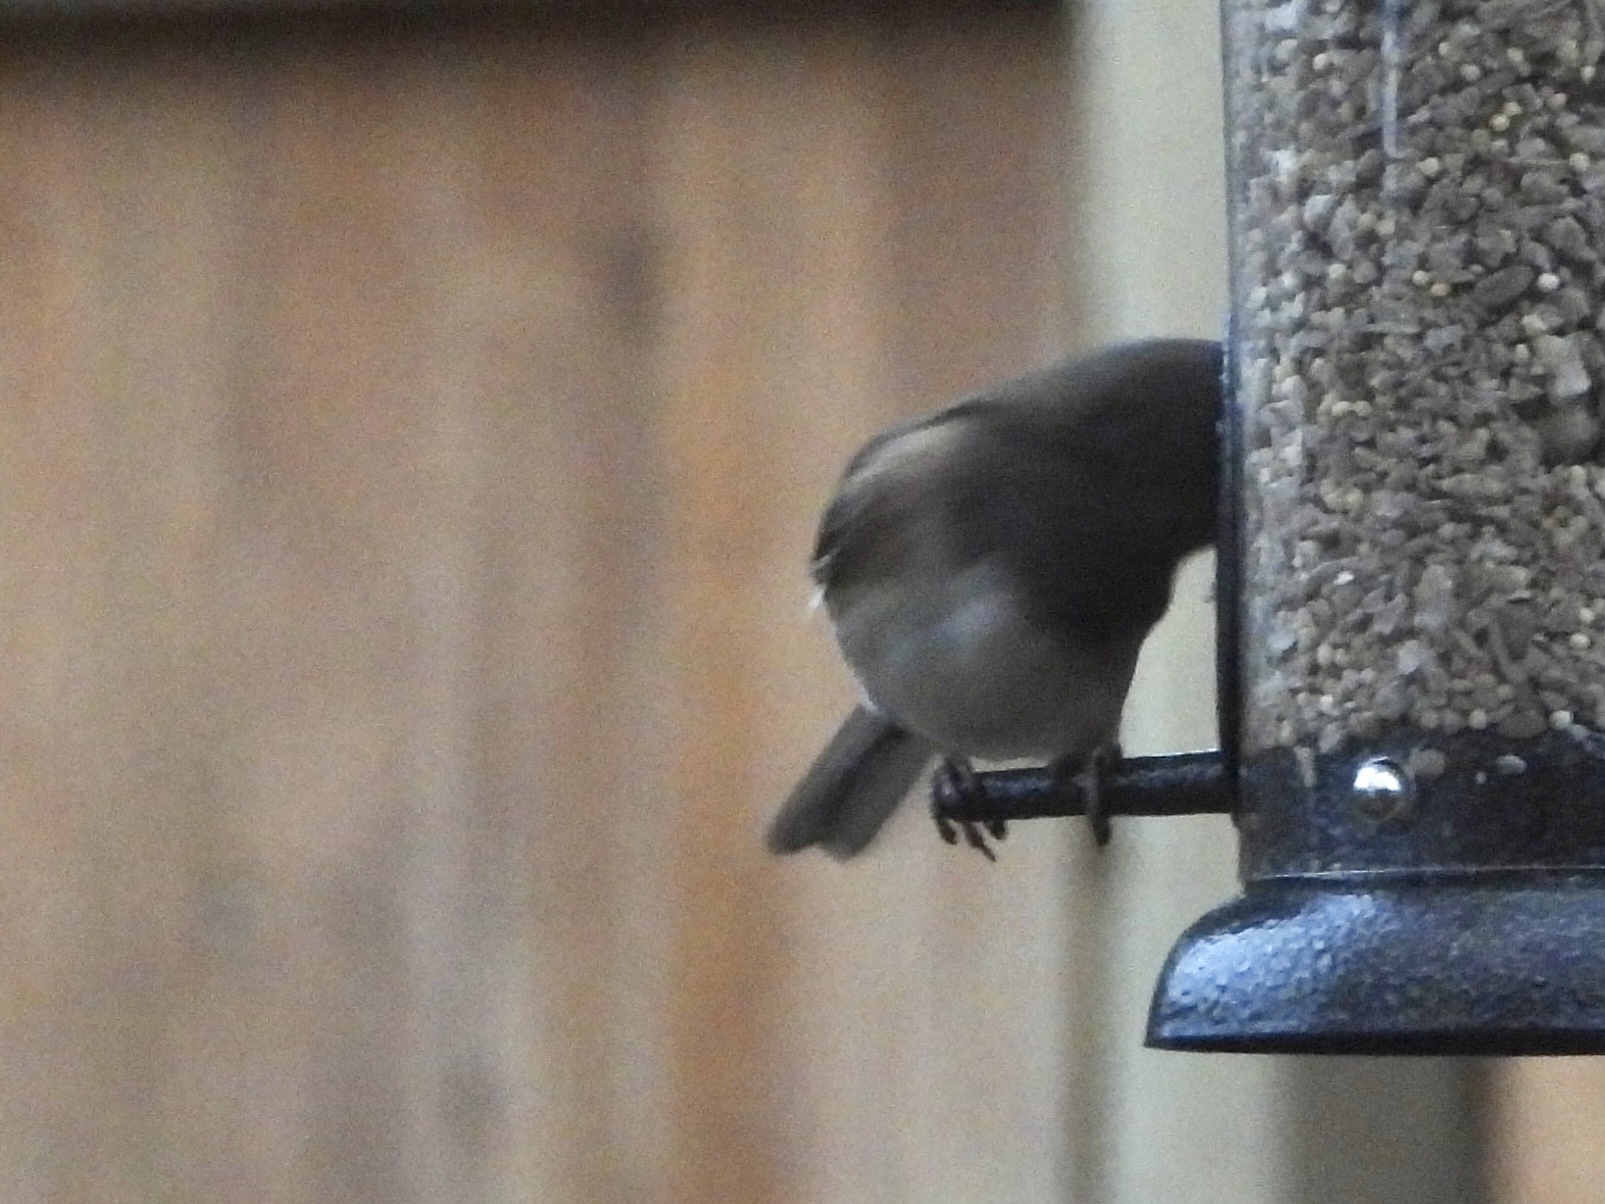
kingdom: Animalia
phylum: Chordata
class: Aves
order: Passeriformes
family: Passerellidae
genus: Junco
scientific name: Junco hyemalis
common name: Dark-eyed junco
